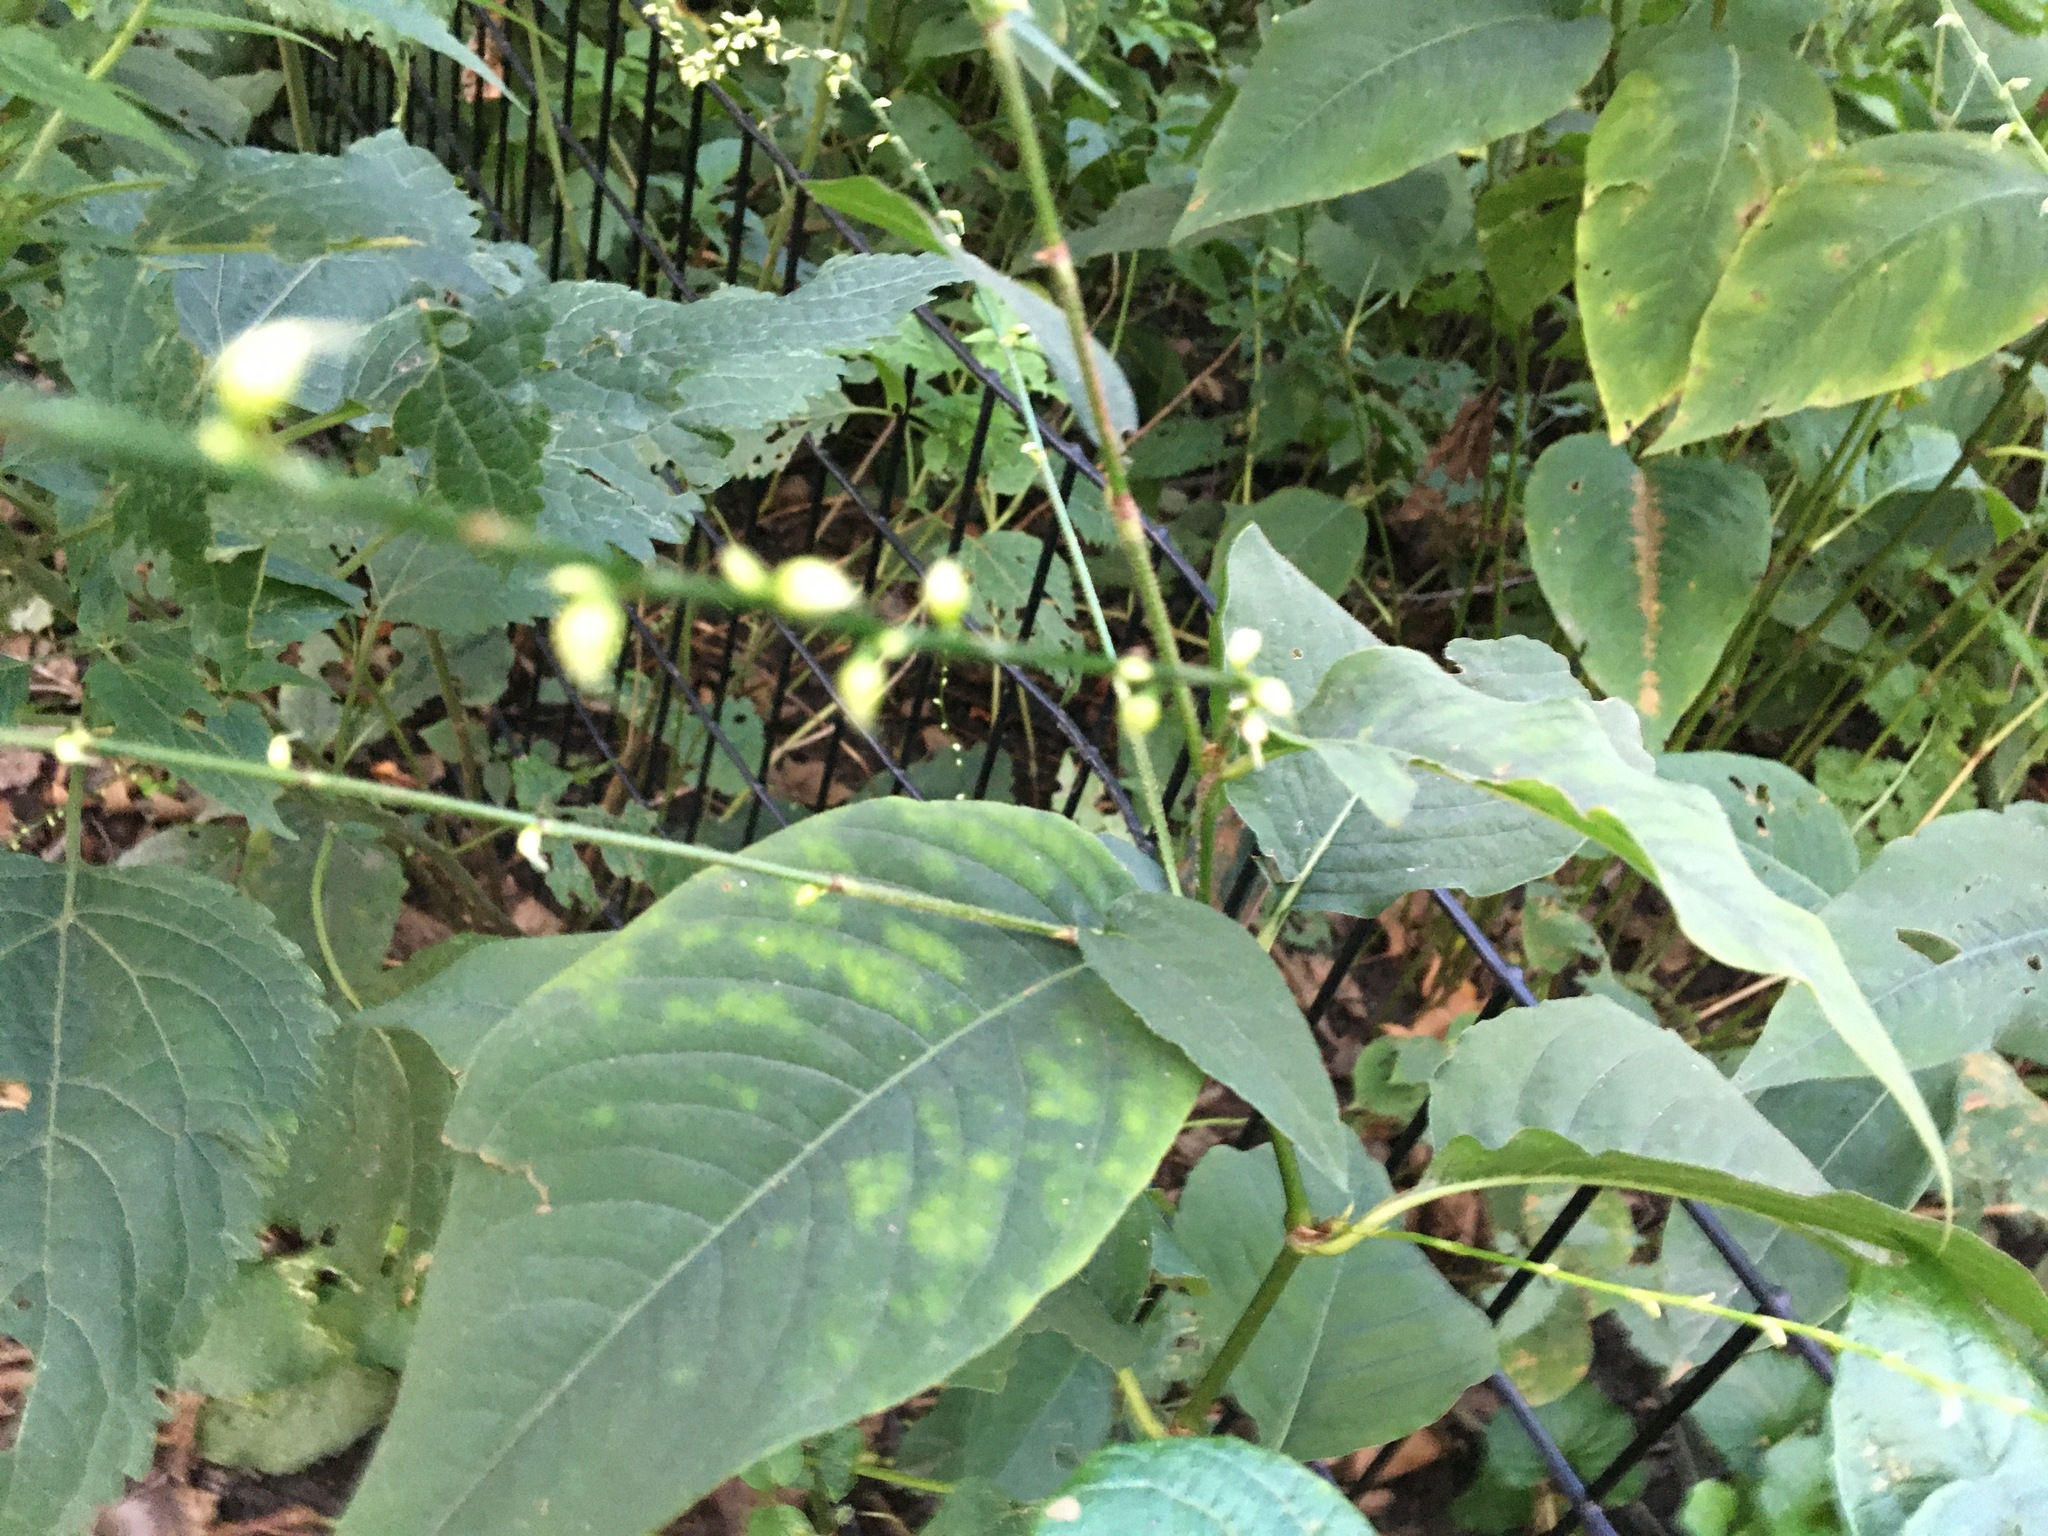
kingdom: Plantae
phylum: Tracheophyta
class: Magnoliopsida
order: Caryophyllales
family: Polygonaceae
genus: Persicaria
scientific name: Persicaria virginiana
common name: Jumpseed
